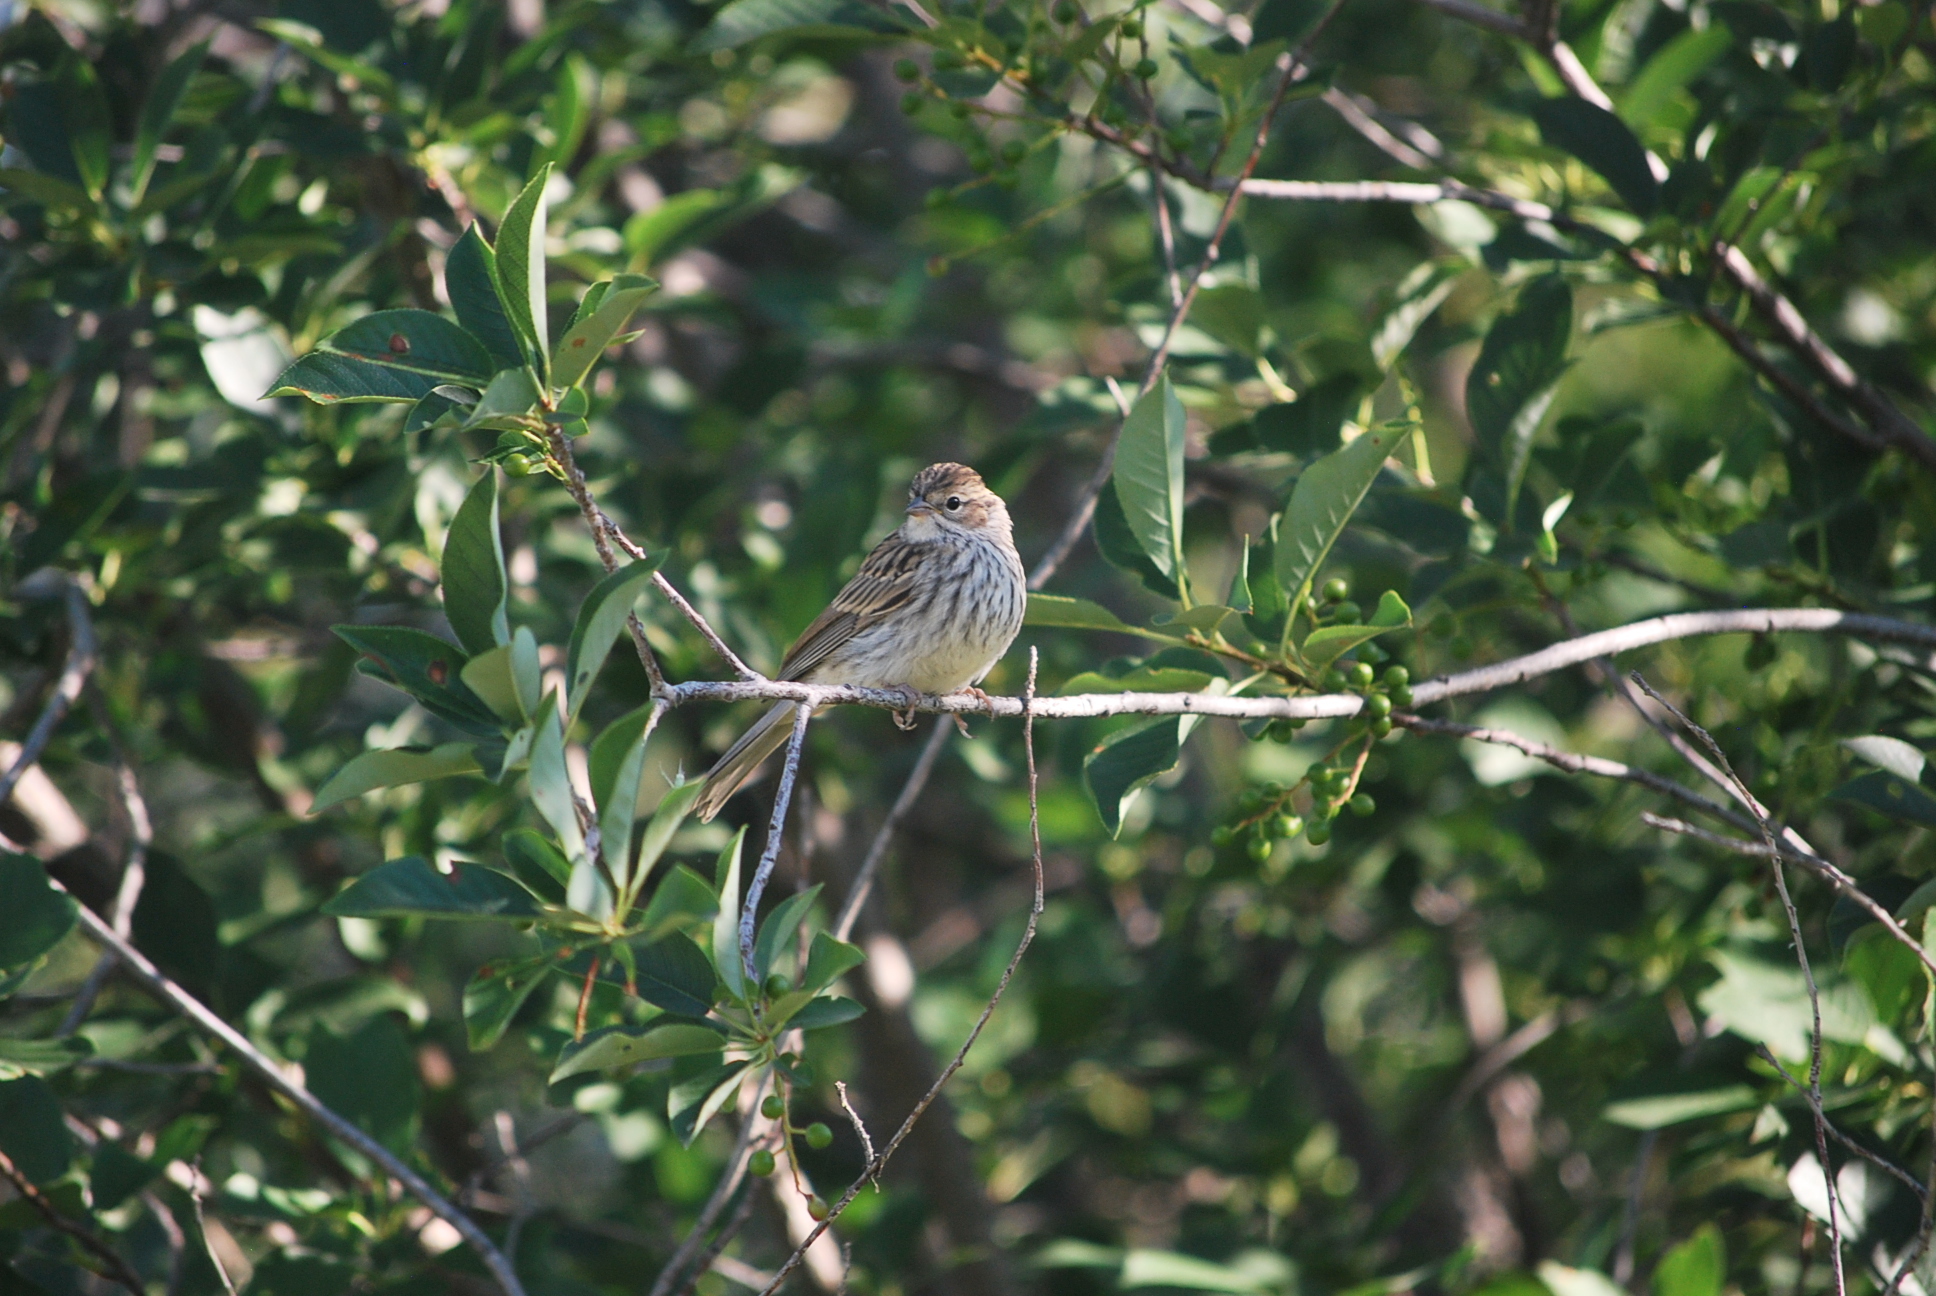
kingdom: Animalia
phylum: Chordata
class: Aves
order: Passeriformes
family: Passerellidae
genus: Spizella
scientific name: Spizella passerina
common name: Chipping sparrow
